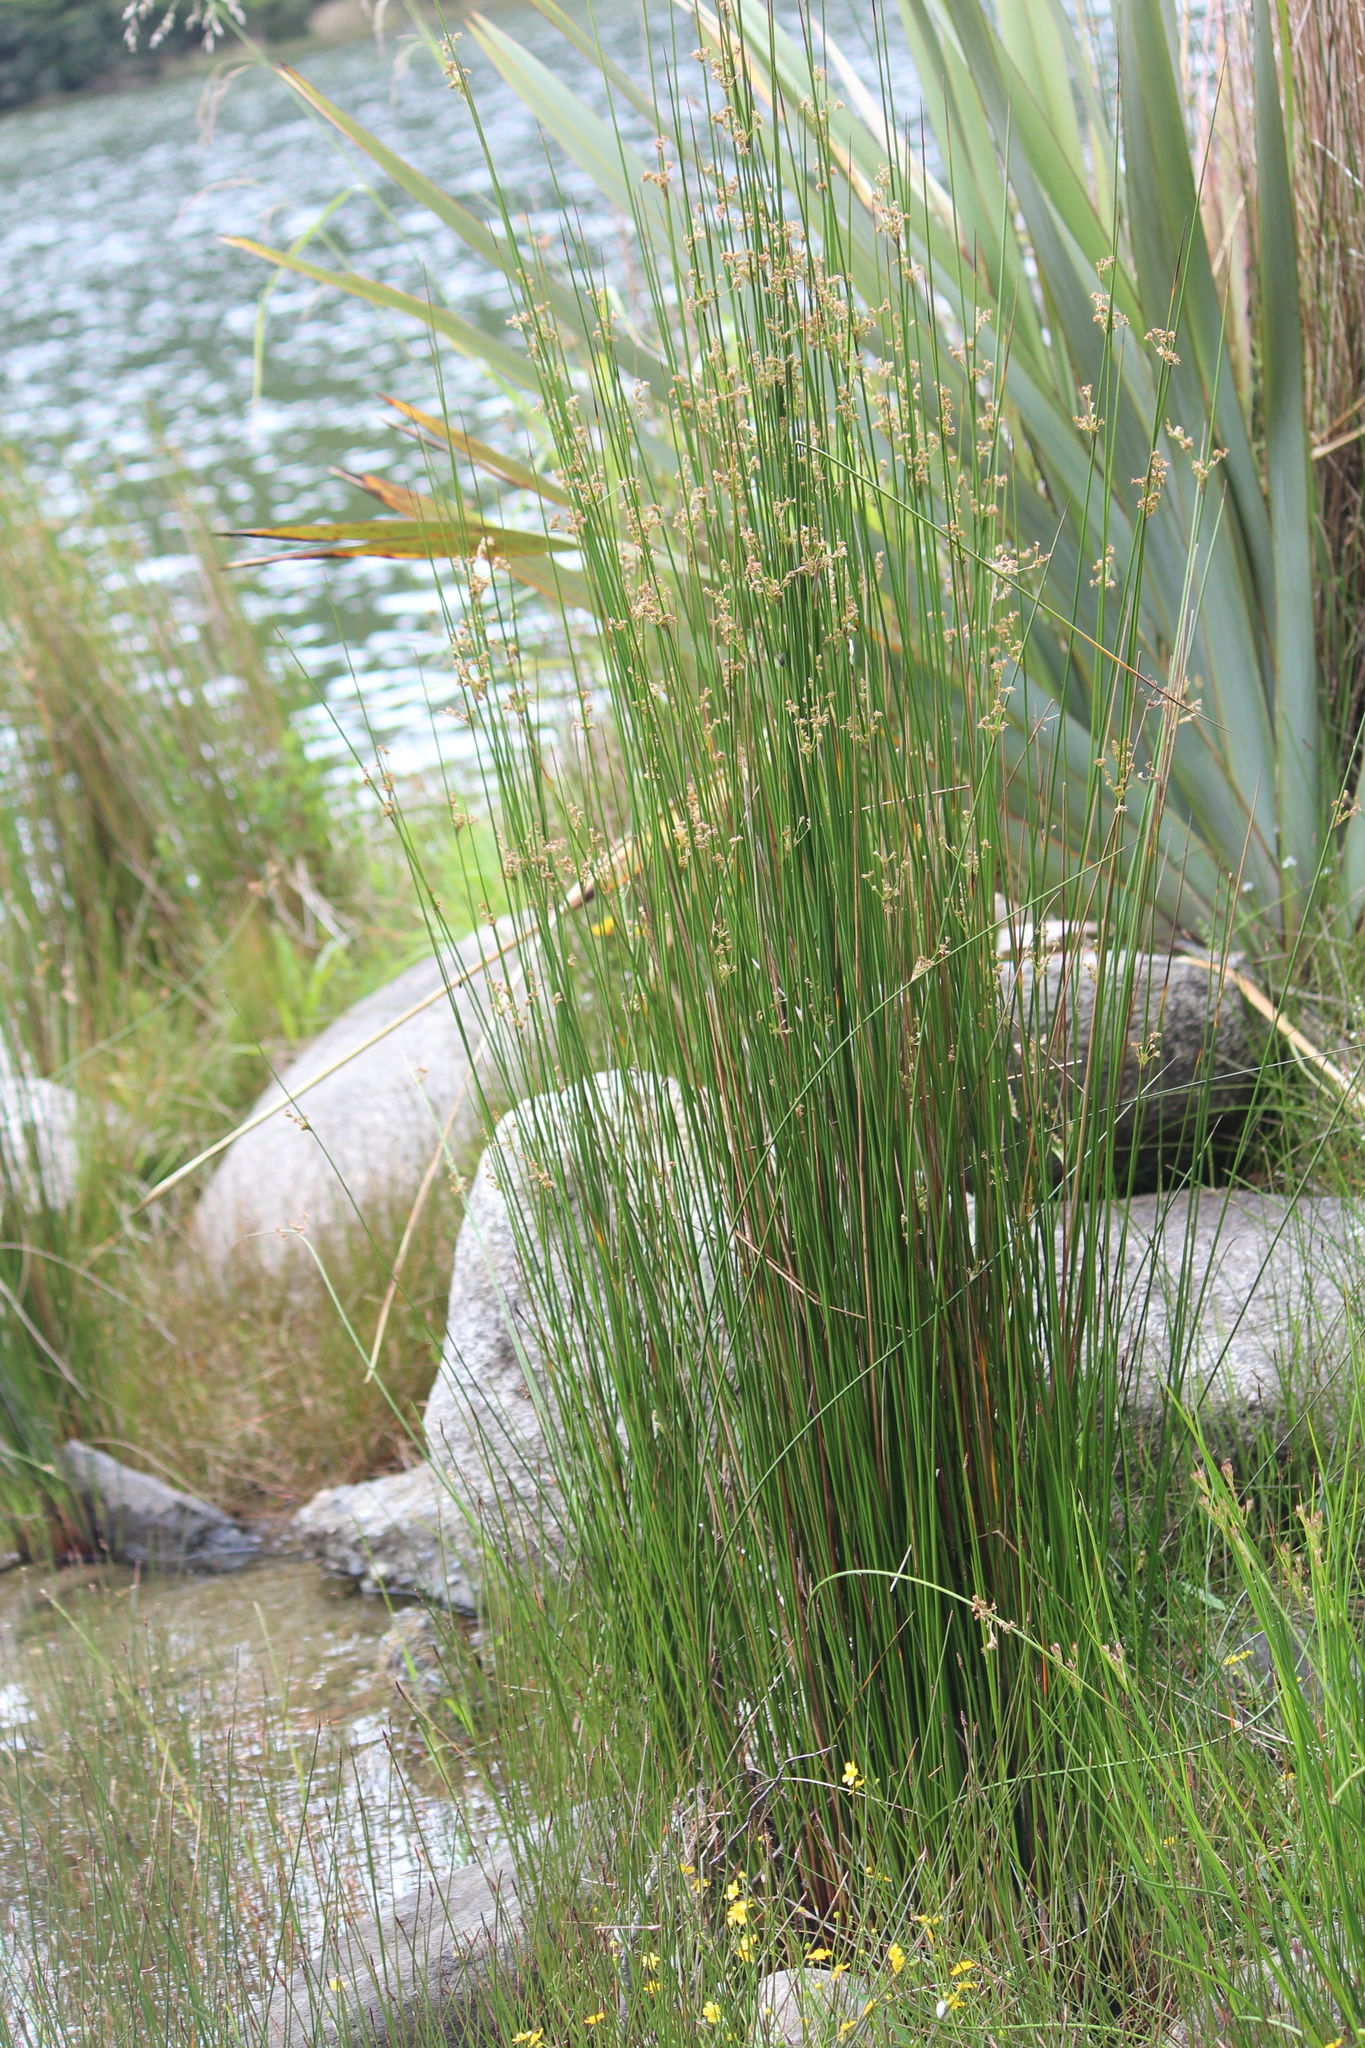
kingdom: Animalia
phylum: Arthropoda
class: Insecta
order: Odonata
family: Coenagrionidae
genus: Xanthocnemis
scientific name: Xanthocnemis zealandica
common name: Common redcoat damselfly
